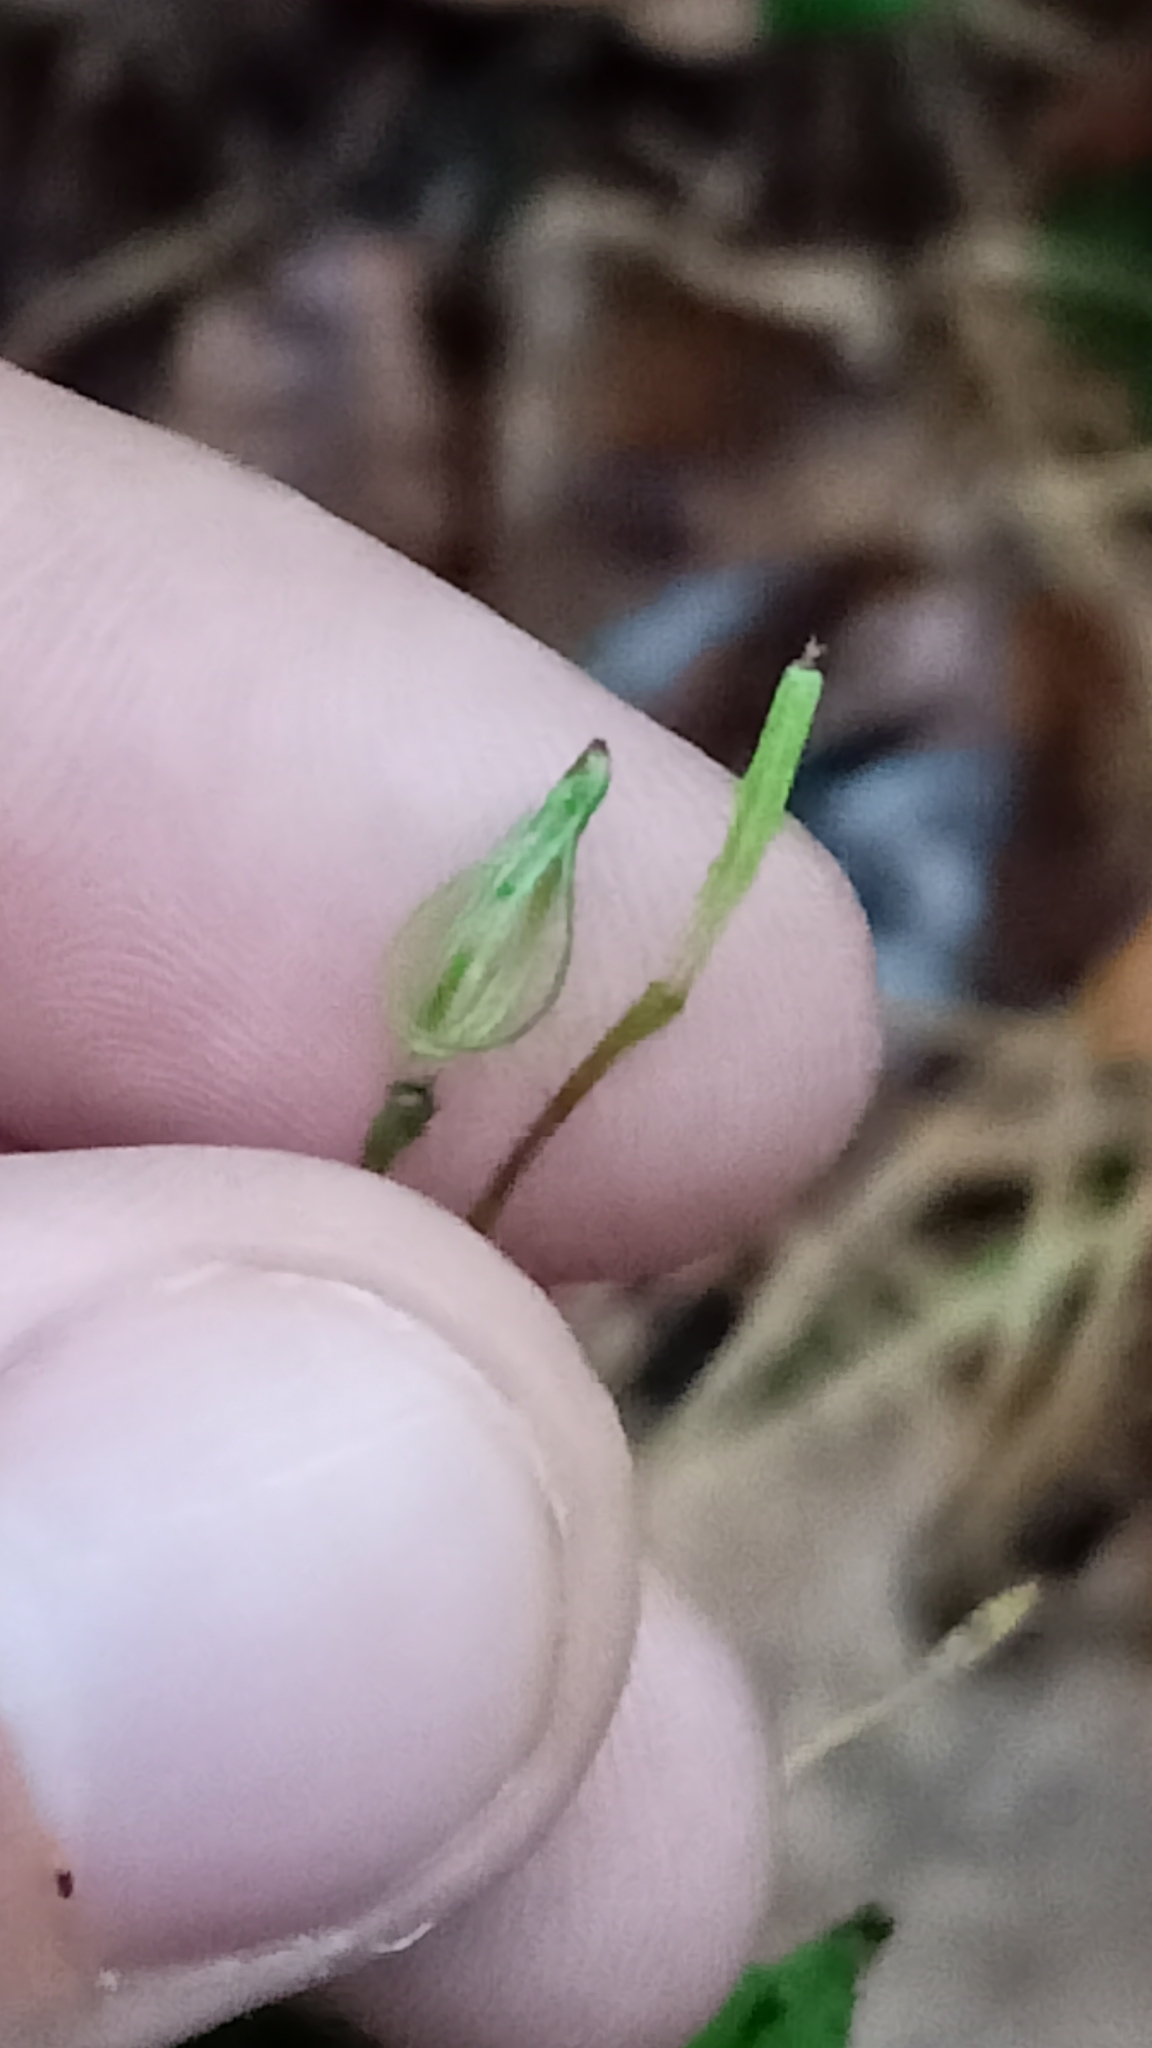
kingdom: Plantae
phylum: Tracheophyta
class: Magnoliopsida
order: Ericales
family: Balsaminaceae
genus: Impatiens
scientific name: Impatiens parviflora
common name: Small balsam
